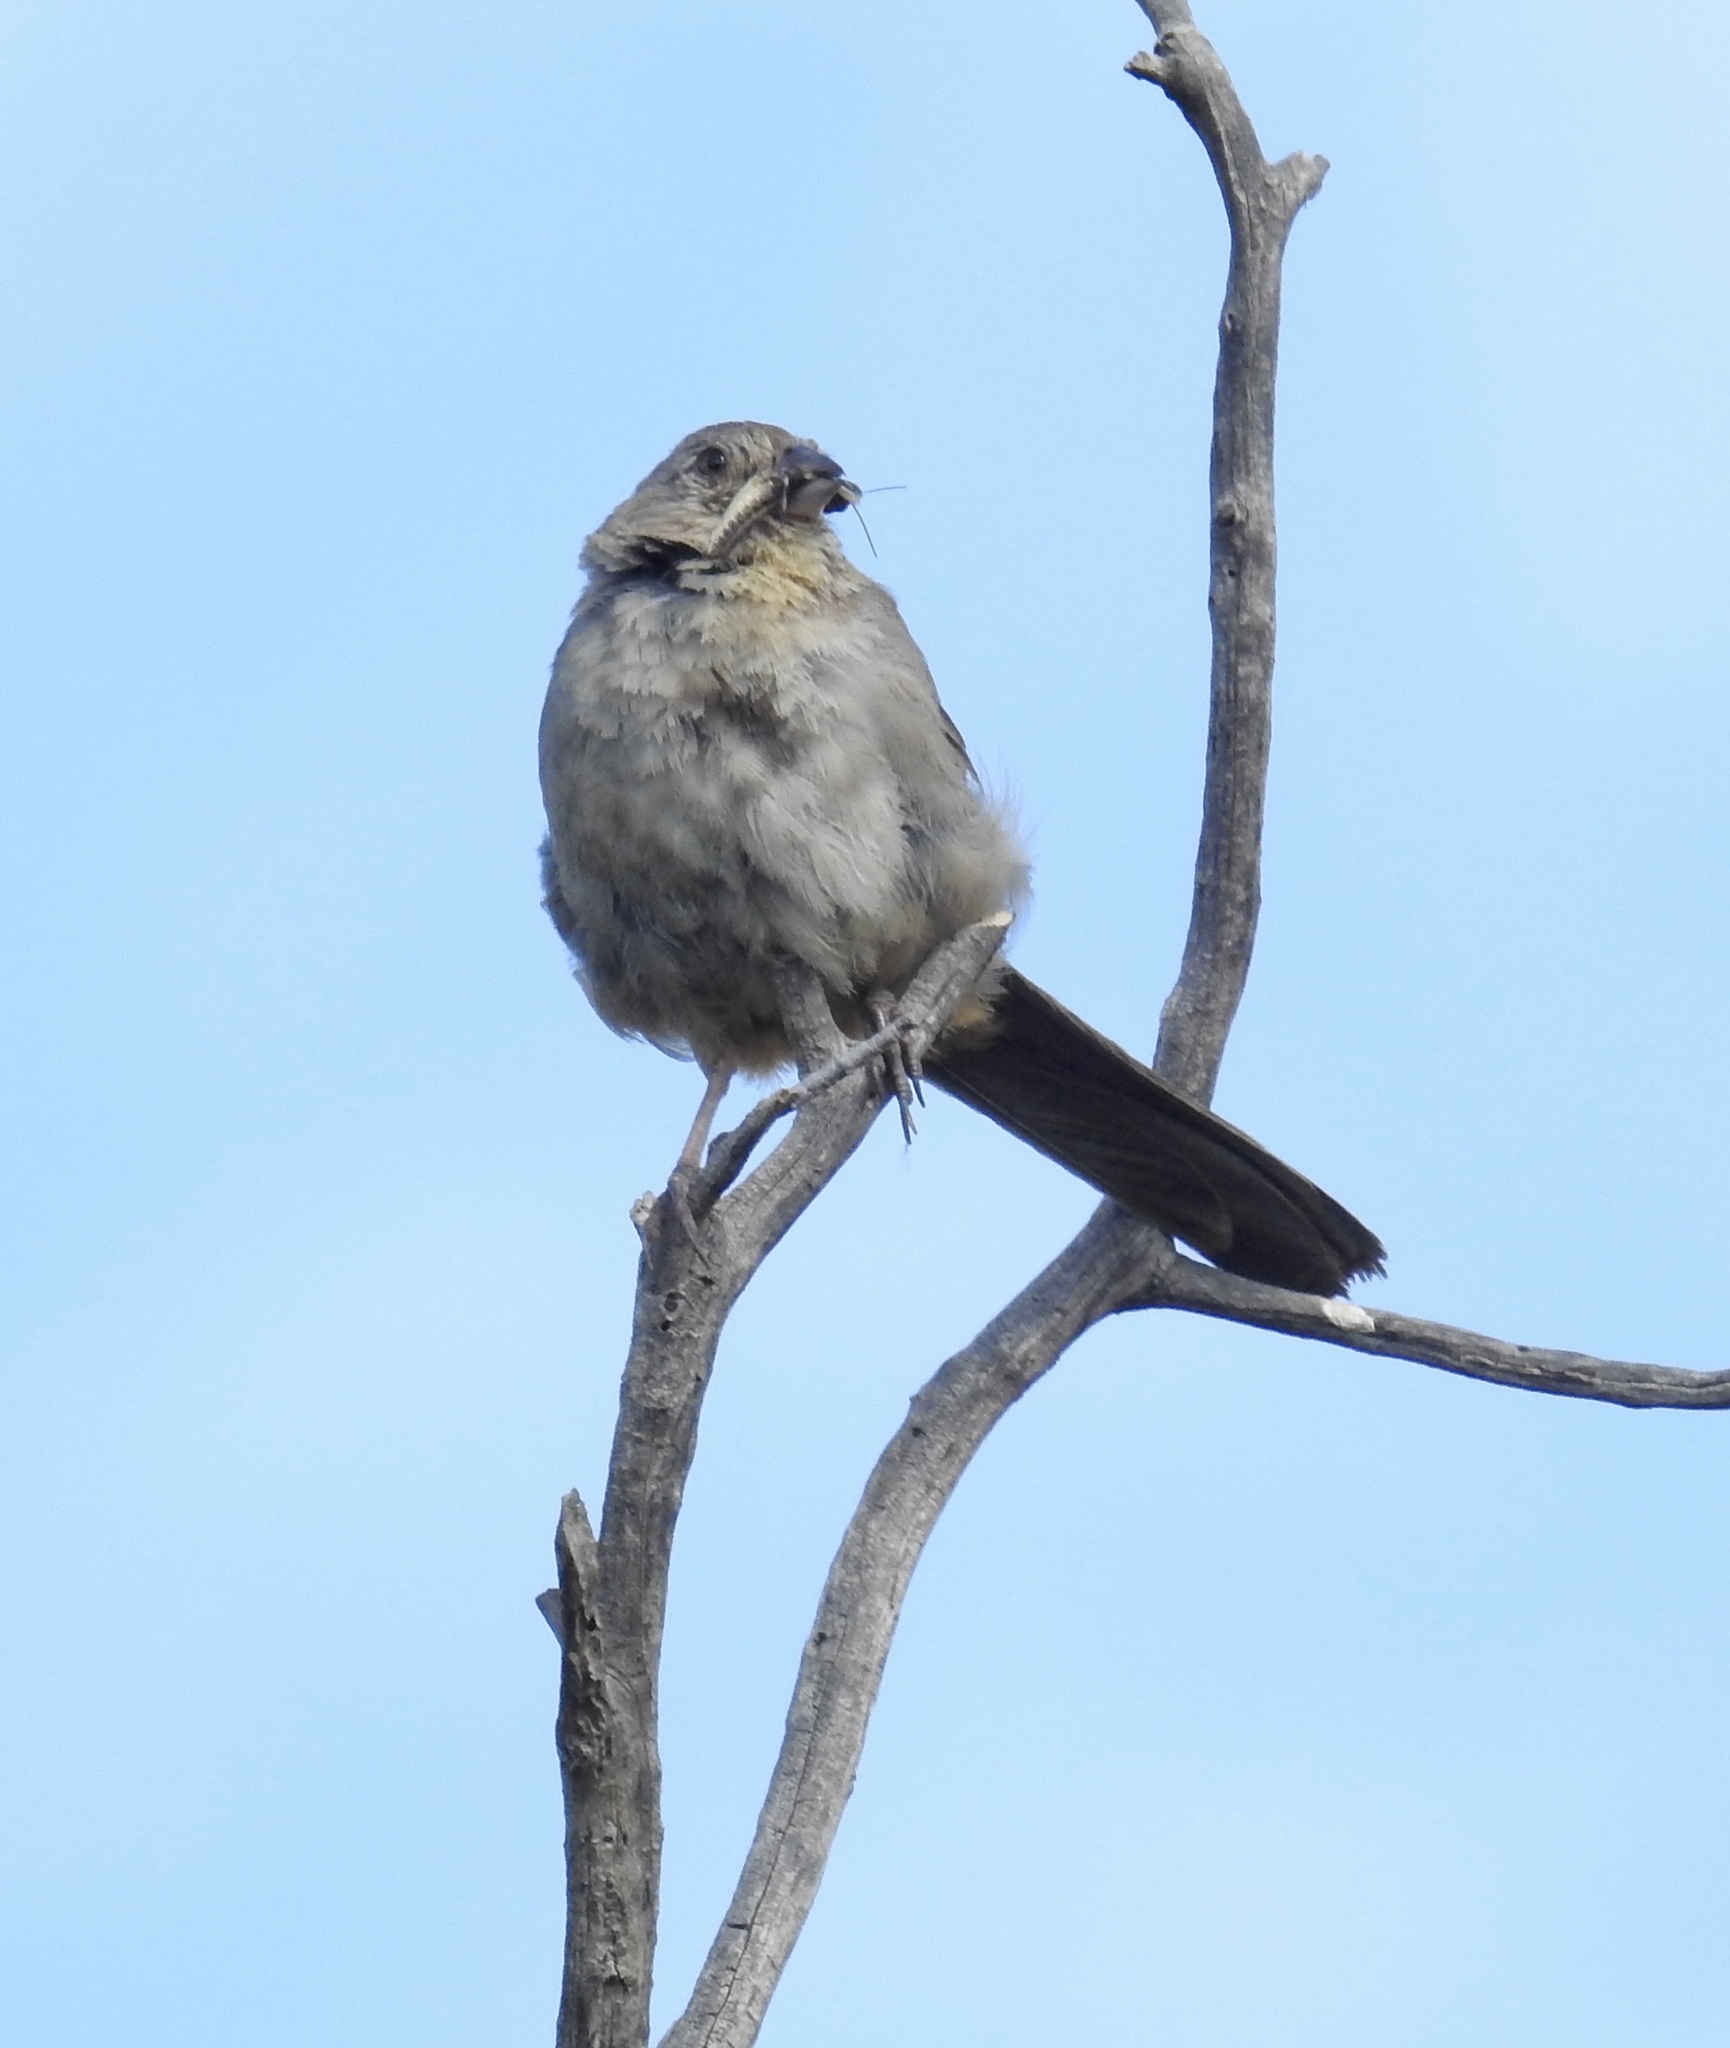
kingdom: Animalia
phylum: Chordata
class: Aves
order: Passeriformes
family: Passerellidae
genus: Melozone
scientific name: Melozone fusca
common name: Canyon towhee
